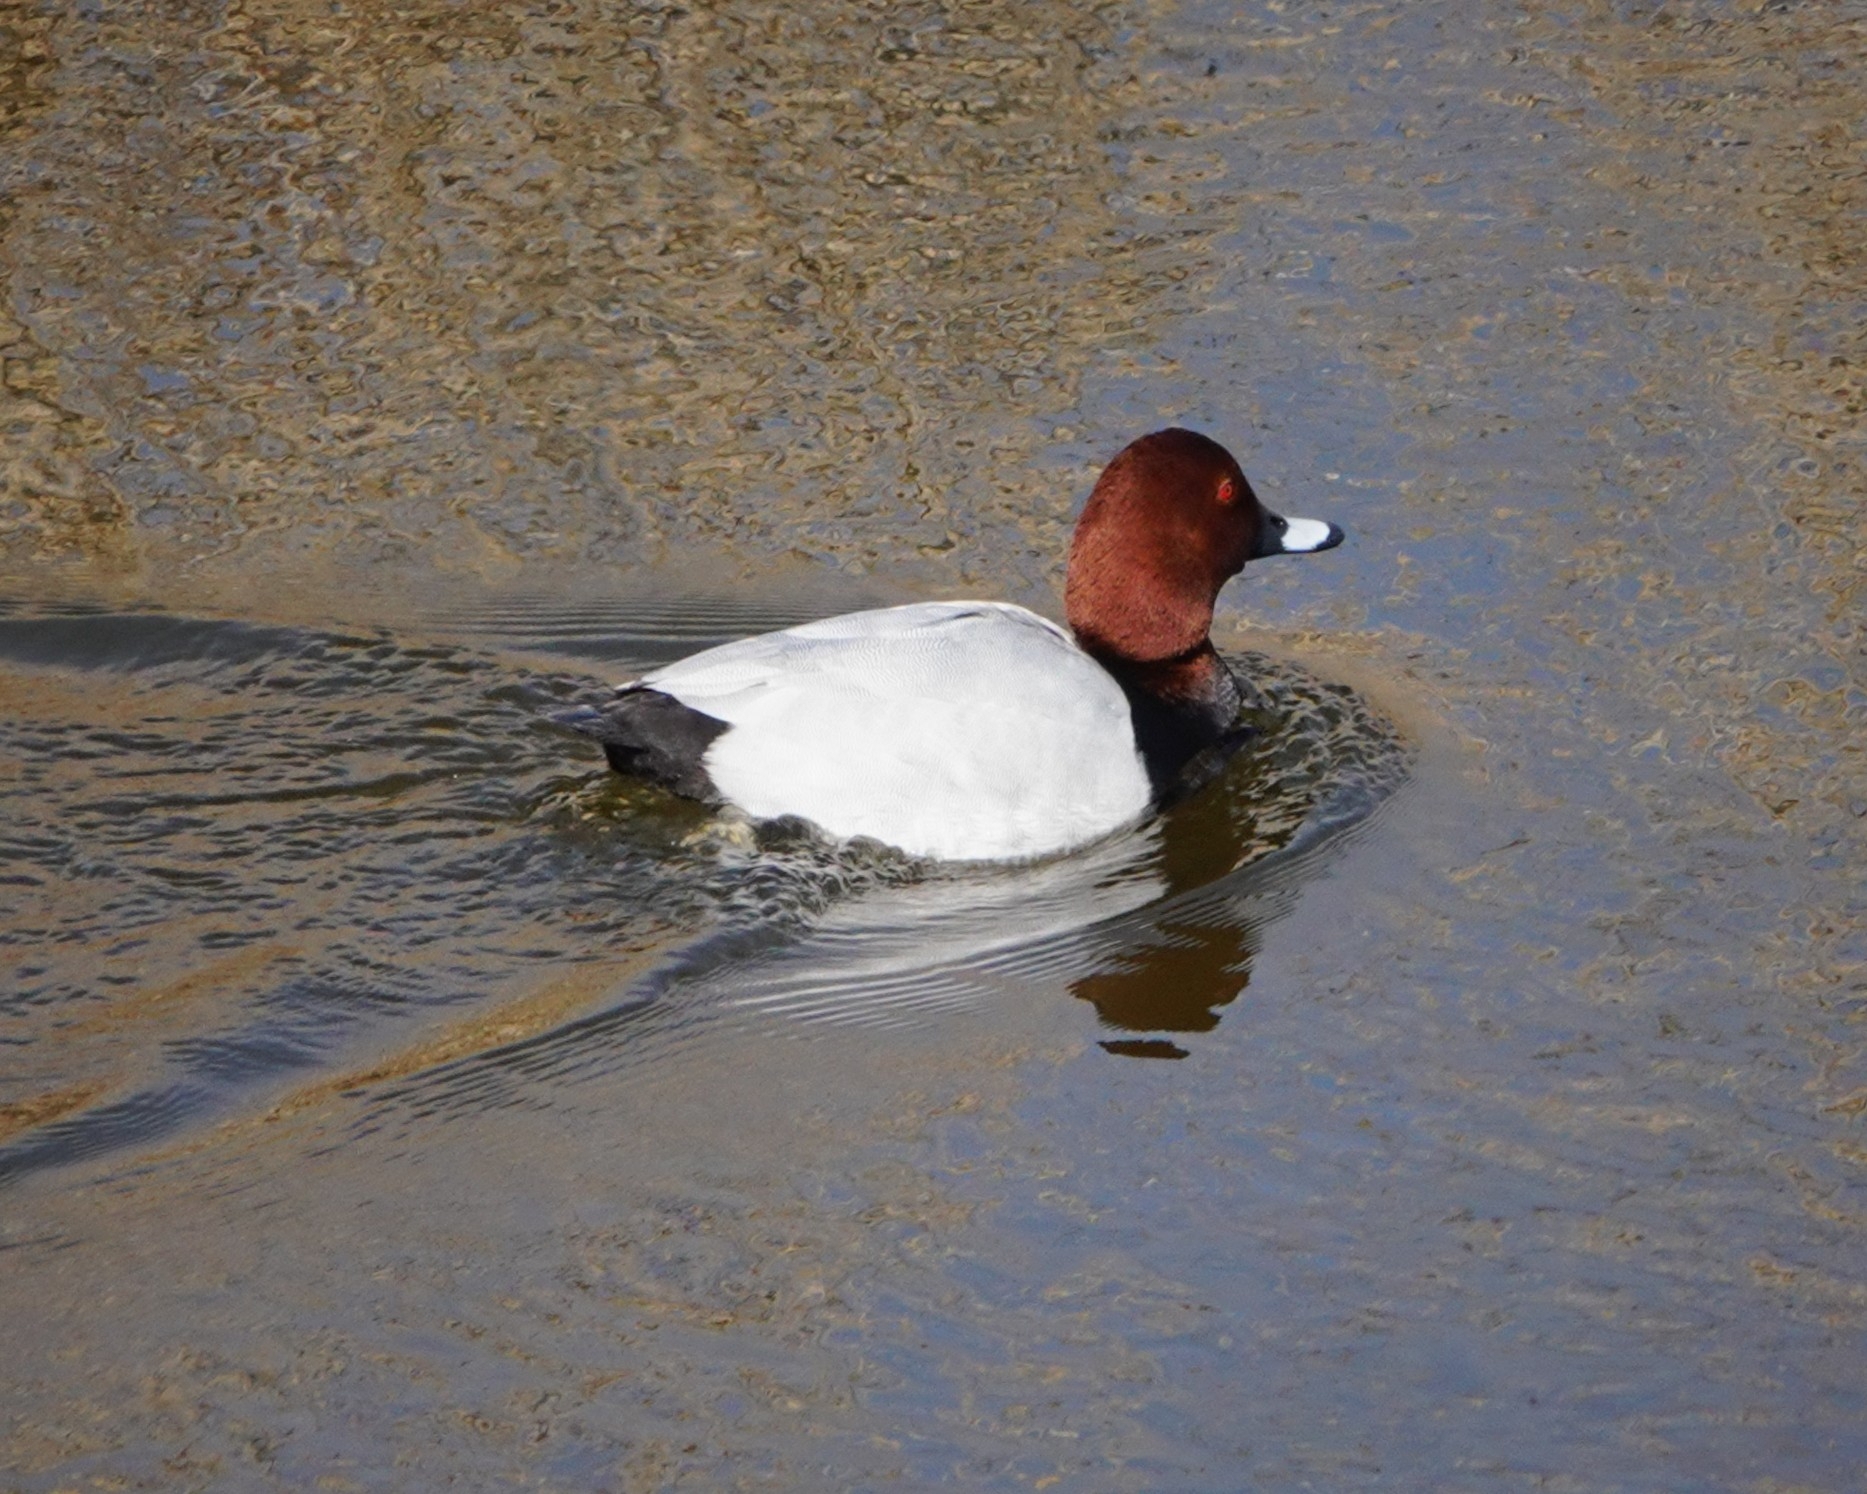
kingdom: Animalia
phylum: Chordata
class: Aves
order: Anseriformes
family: Anatidae
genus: Aythya
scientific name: Aythya ferina
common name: Common pochard
